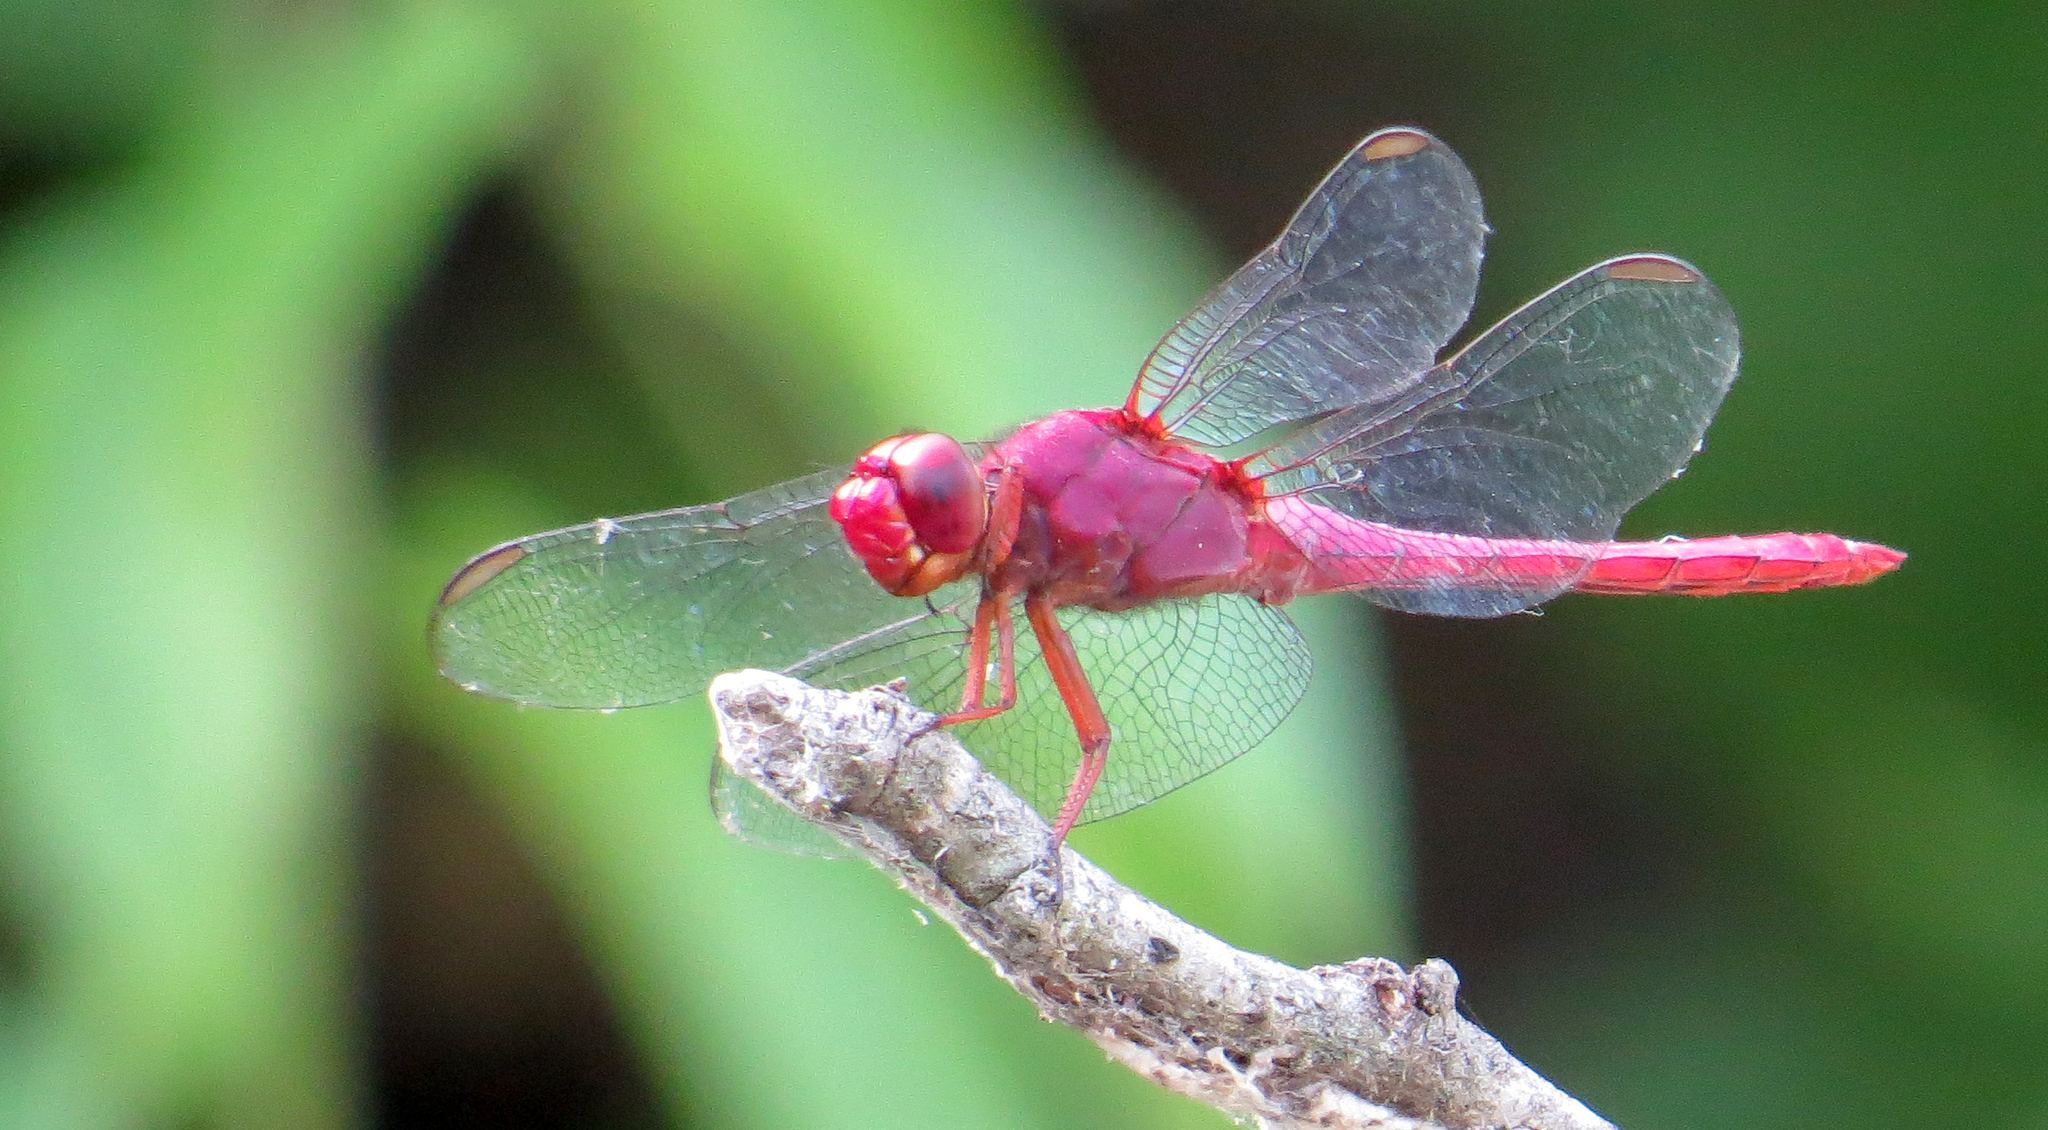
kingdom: Animalia
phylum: Arthropoda
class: Insecta
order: Odonata
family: Libellulidae
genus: Orthemis
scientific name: Orthemis discolor
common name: Carmine skimmer
